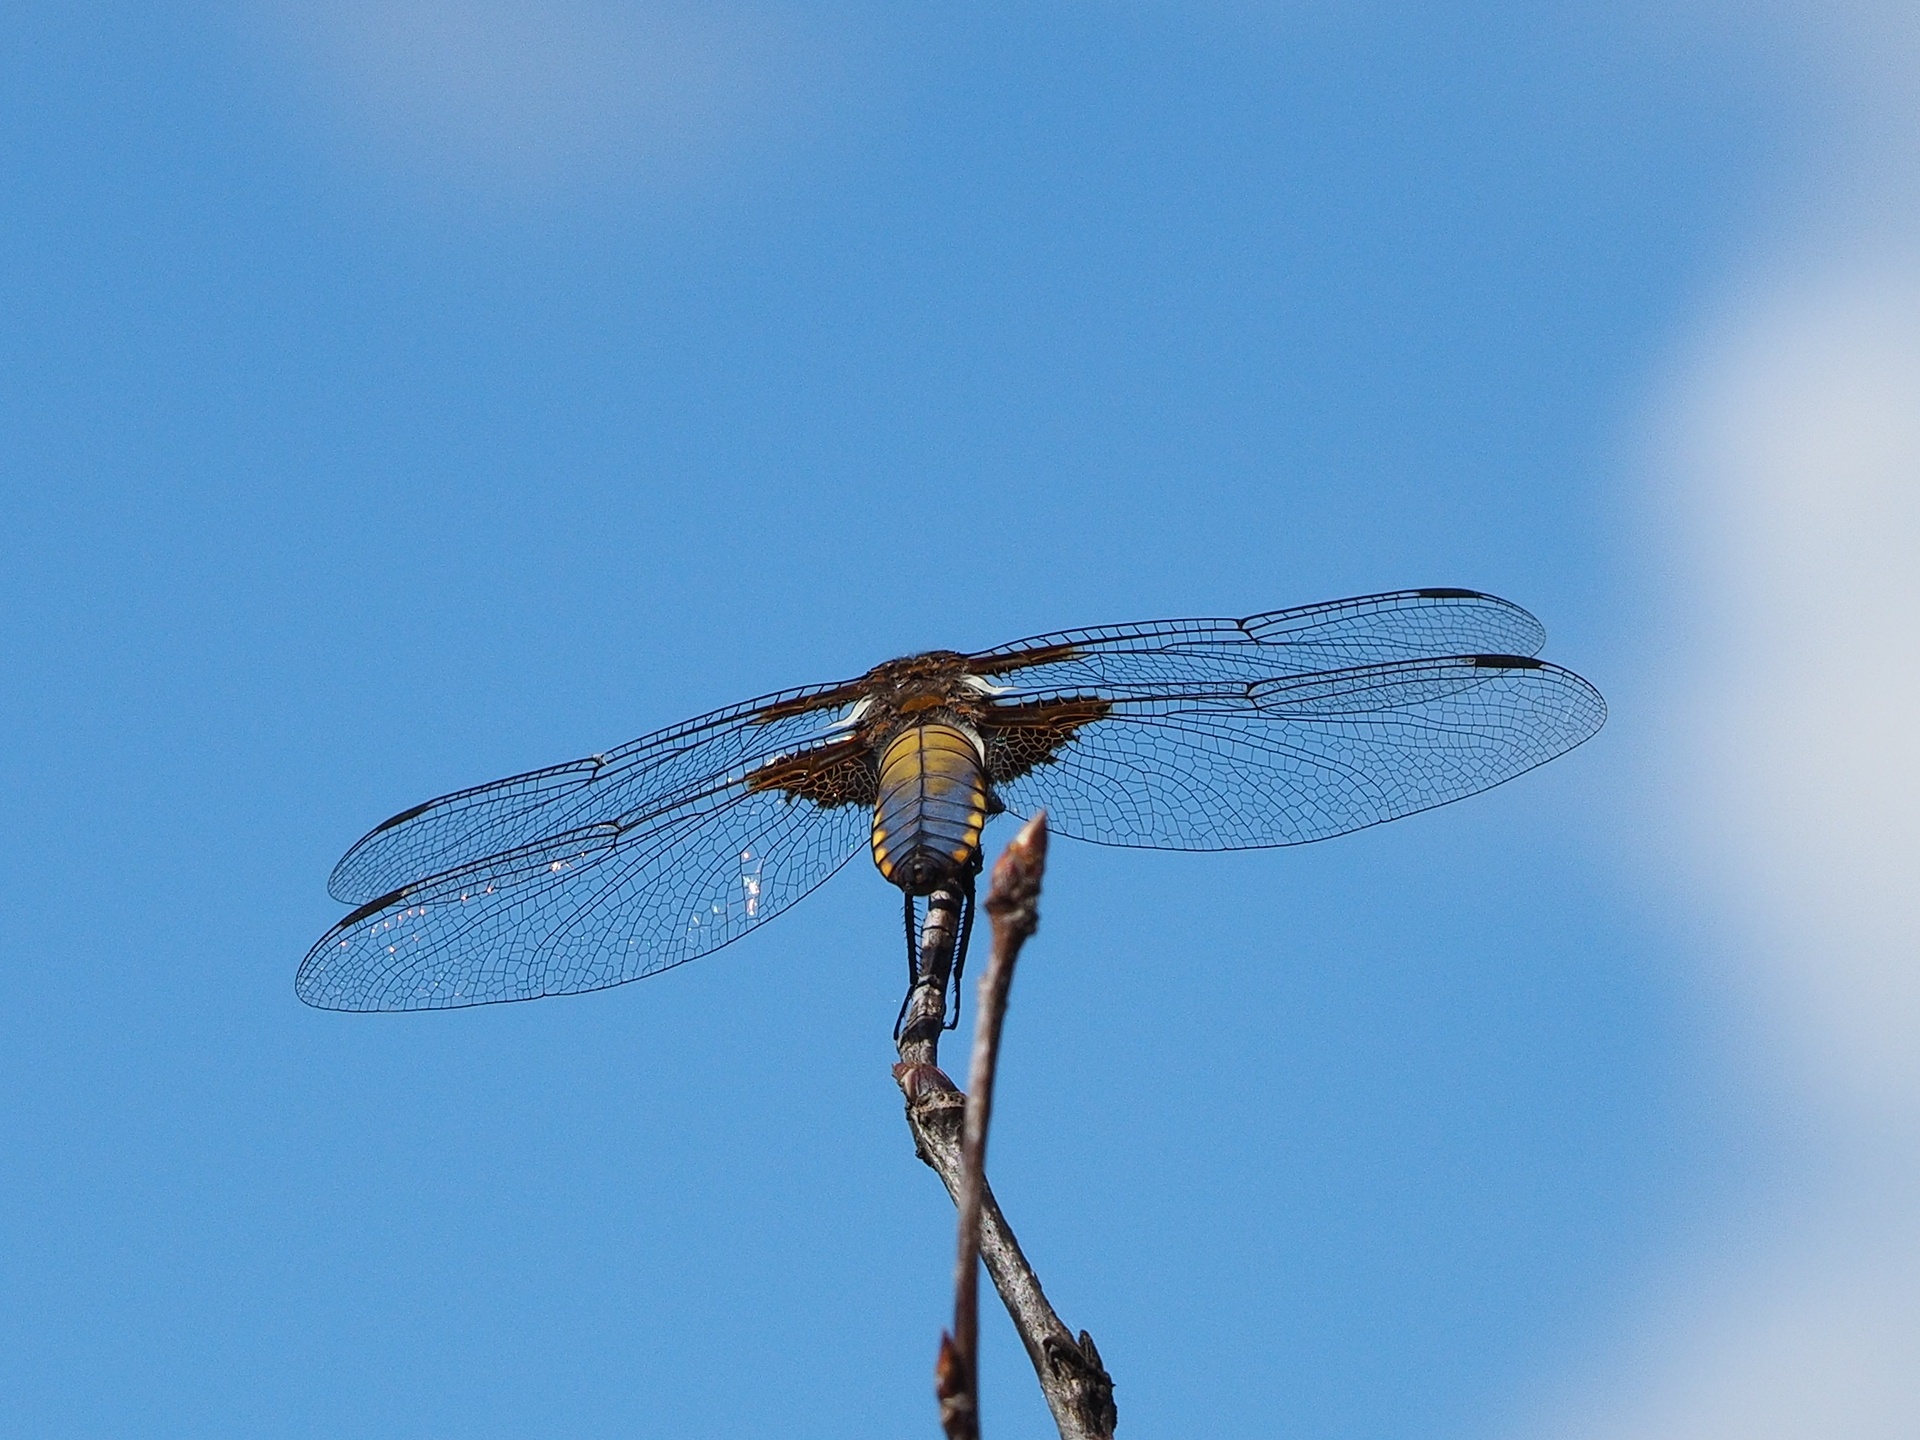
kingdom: Animalia
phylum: Arthropoda
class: Insecta
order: Odonata
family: Libellulidae
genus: Libellula
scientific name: Libellula depressa
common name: Broad-bodied chaser
